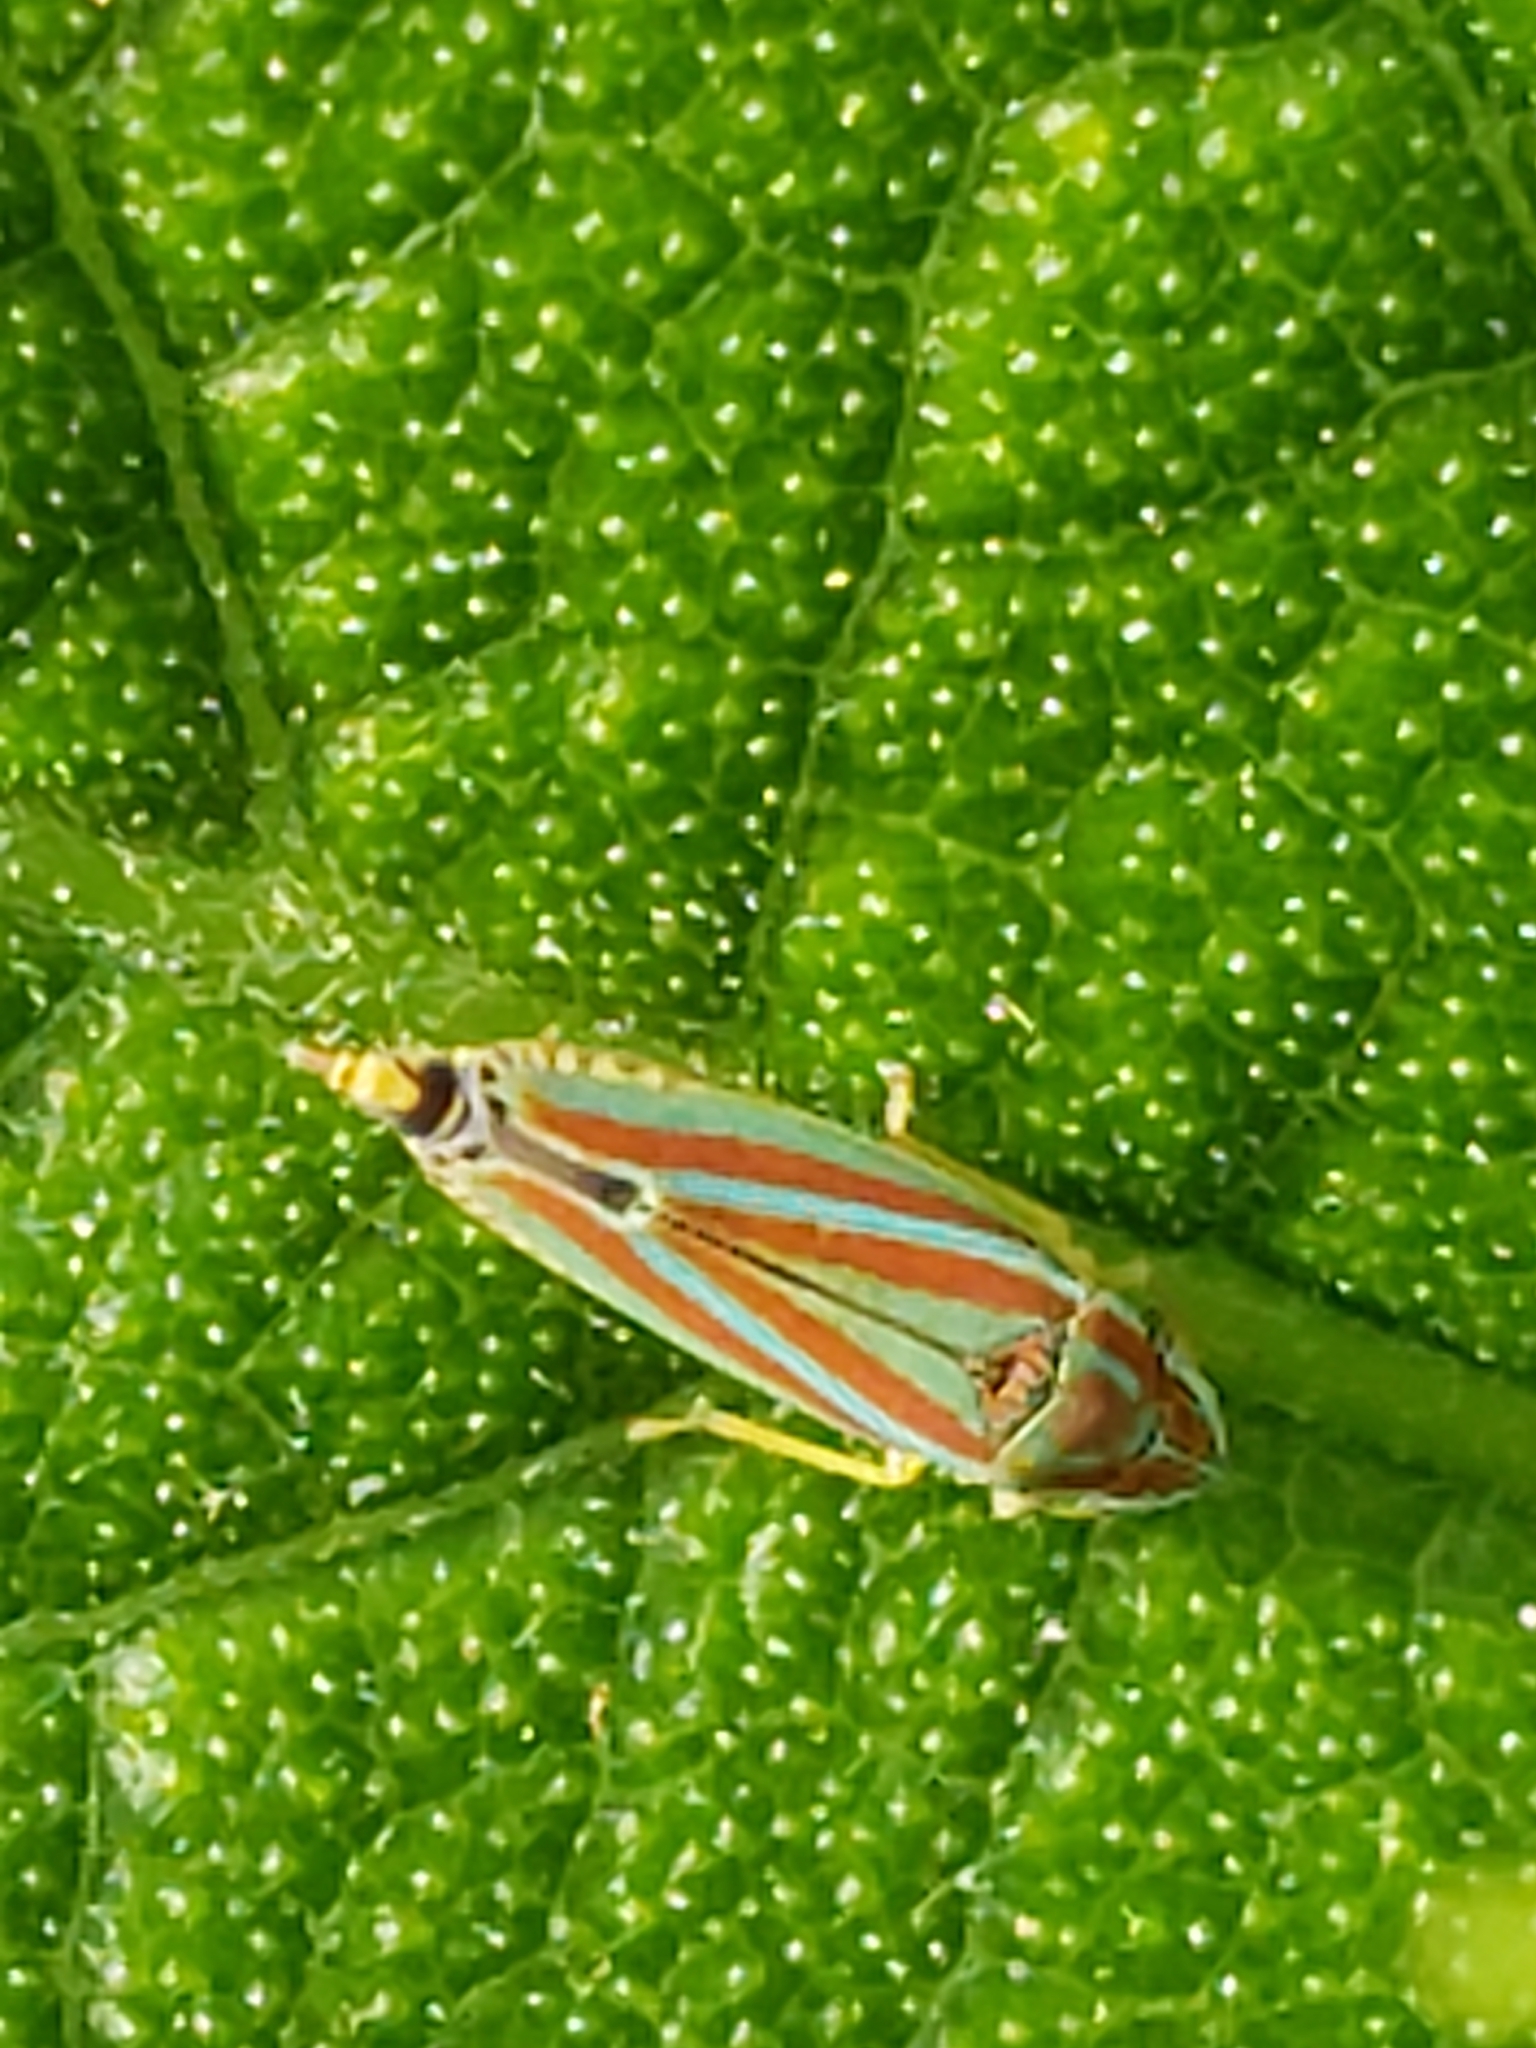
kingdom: Animalia
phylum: Arthropoda
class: Insecta
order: Hemiptera
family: Cicadellidae
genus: Graphocephala
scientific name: Graphocephala versuta
